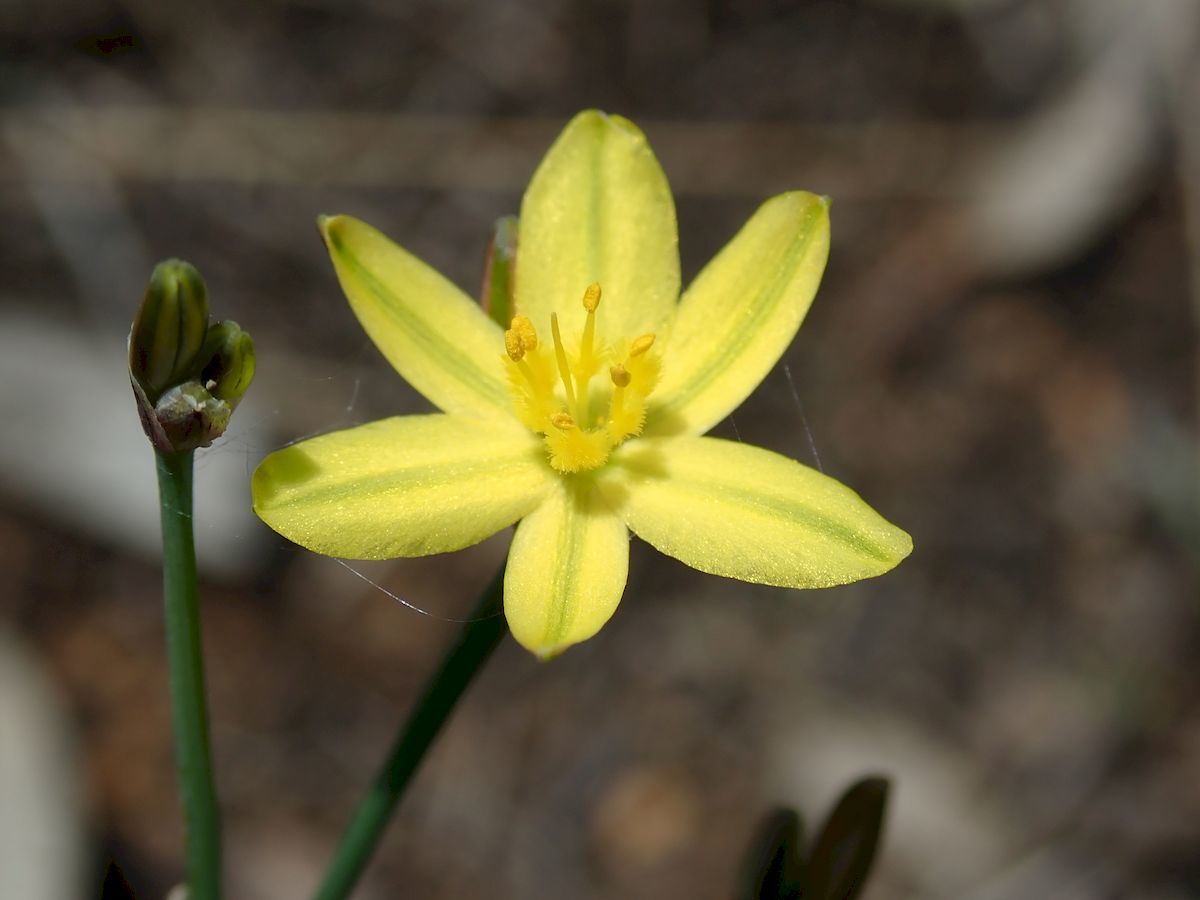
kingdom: Plantae
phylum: Tracheophyta
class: Liliopsida
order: Asparagales
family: Asphodelaceae
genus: Tricoryne
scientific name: Tricoryne elatior
